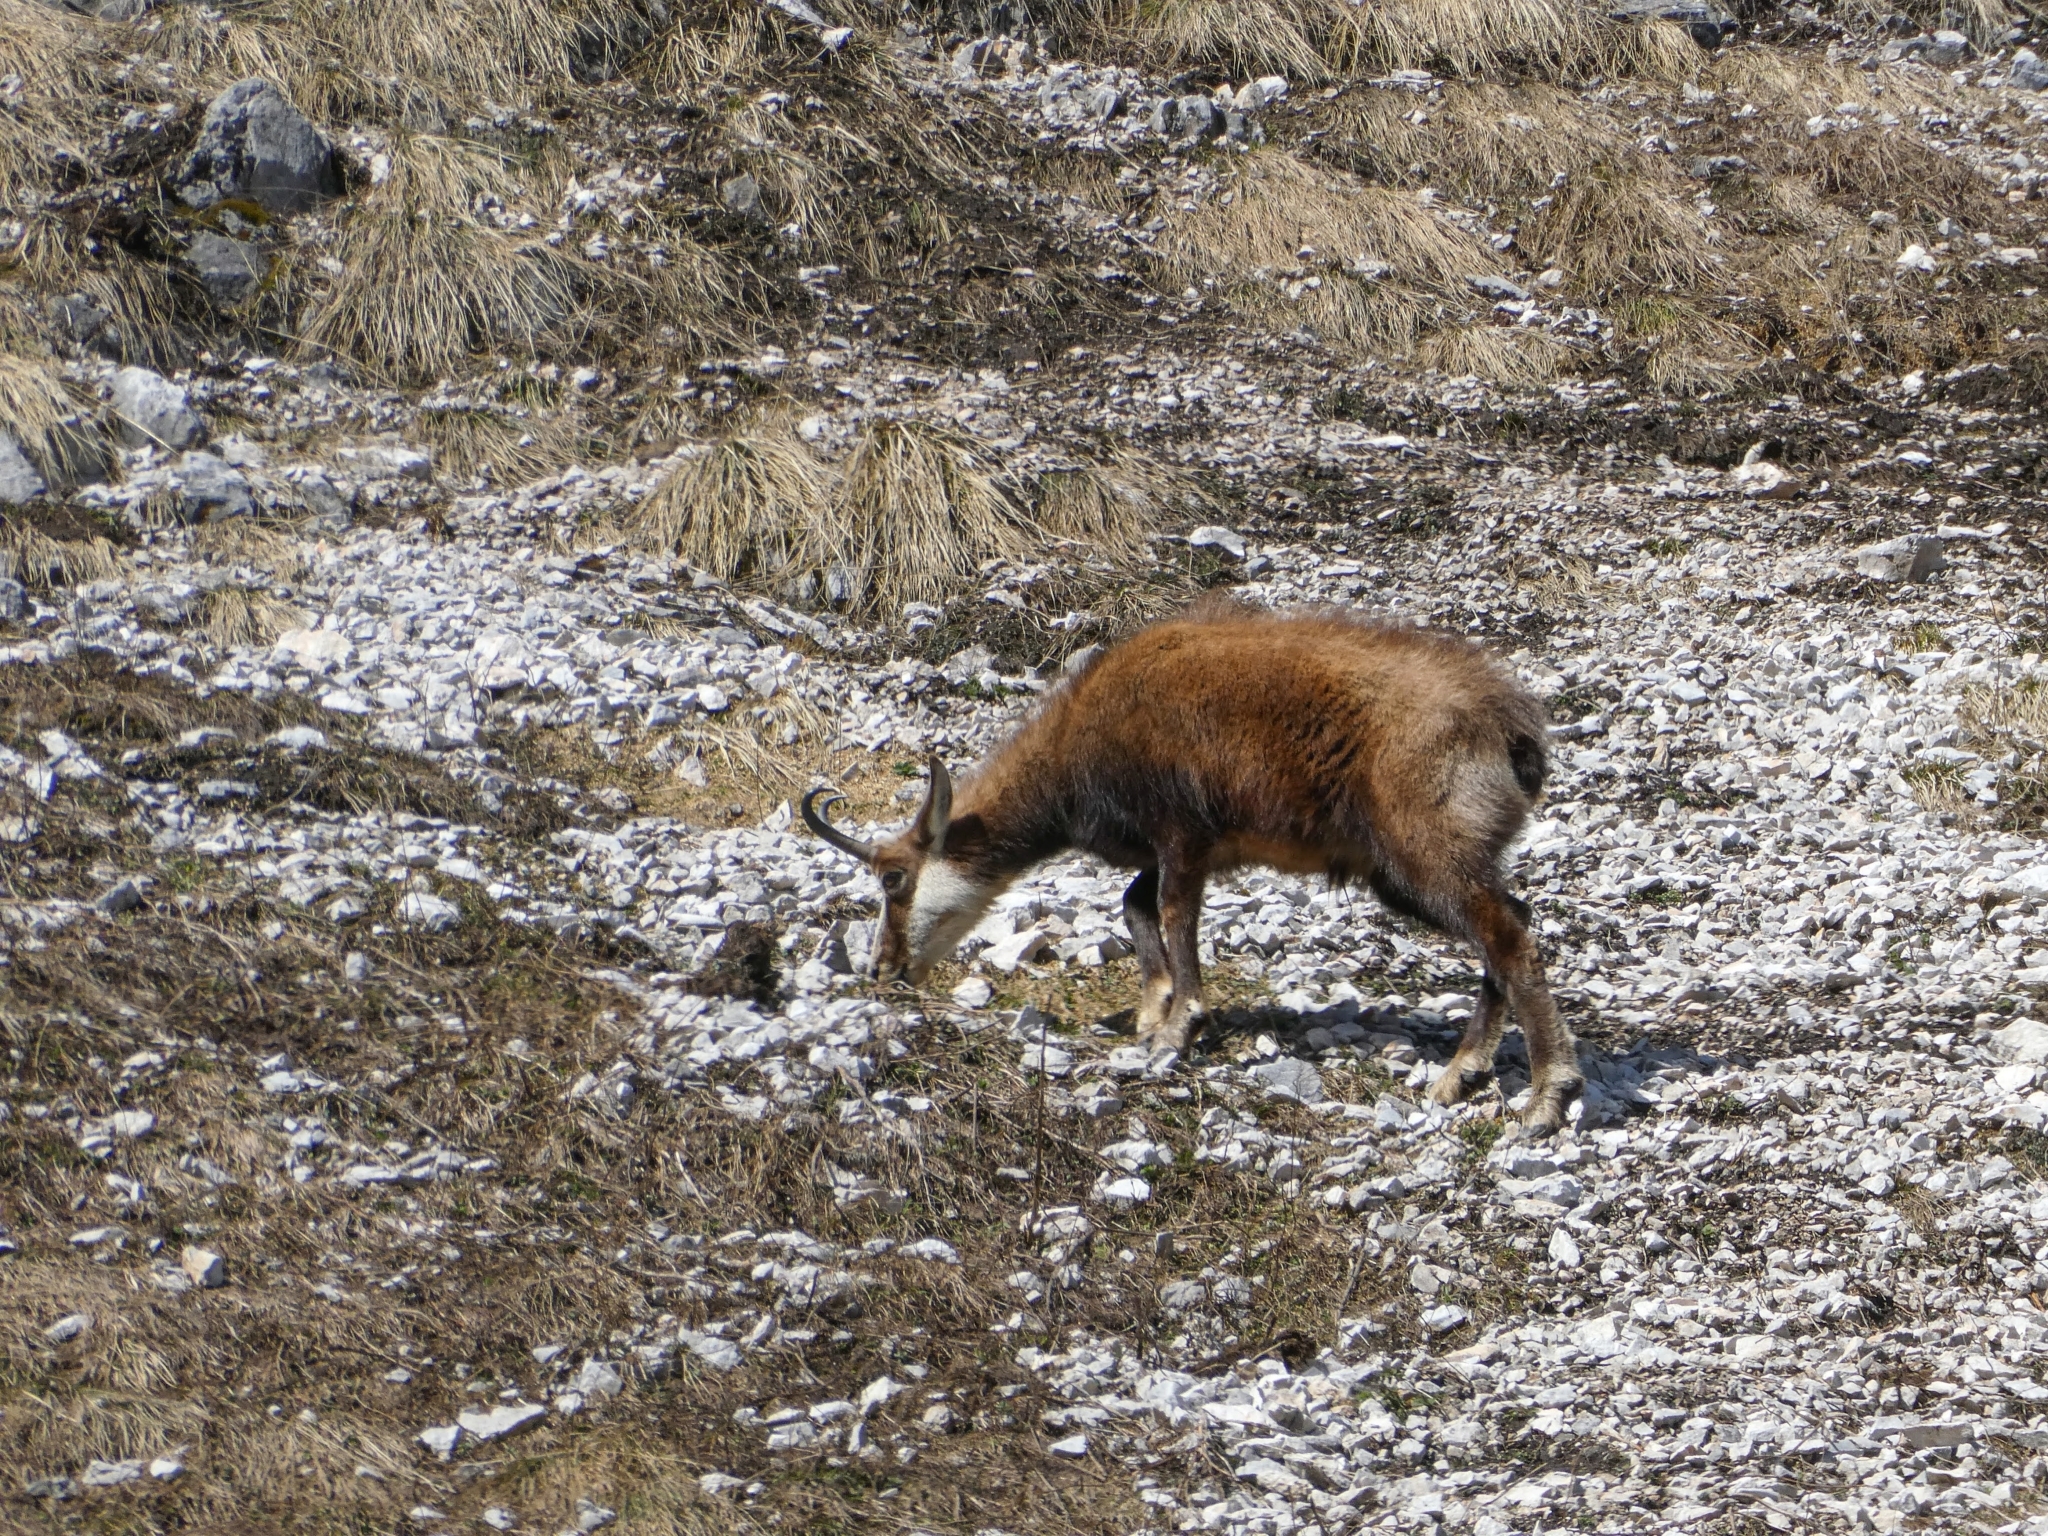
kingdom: Animalia
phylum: Chordata
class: Mammalia
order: Artiodactyla
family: Bovidae
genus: Rupicapra
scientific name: Rupicapra rupicapra
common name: Chamois
